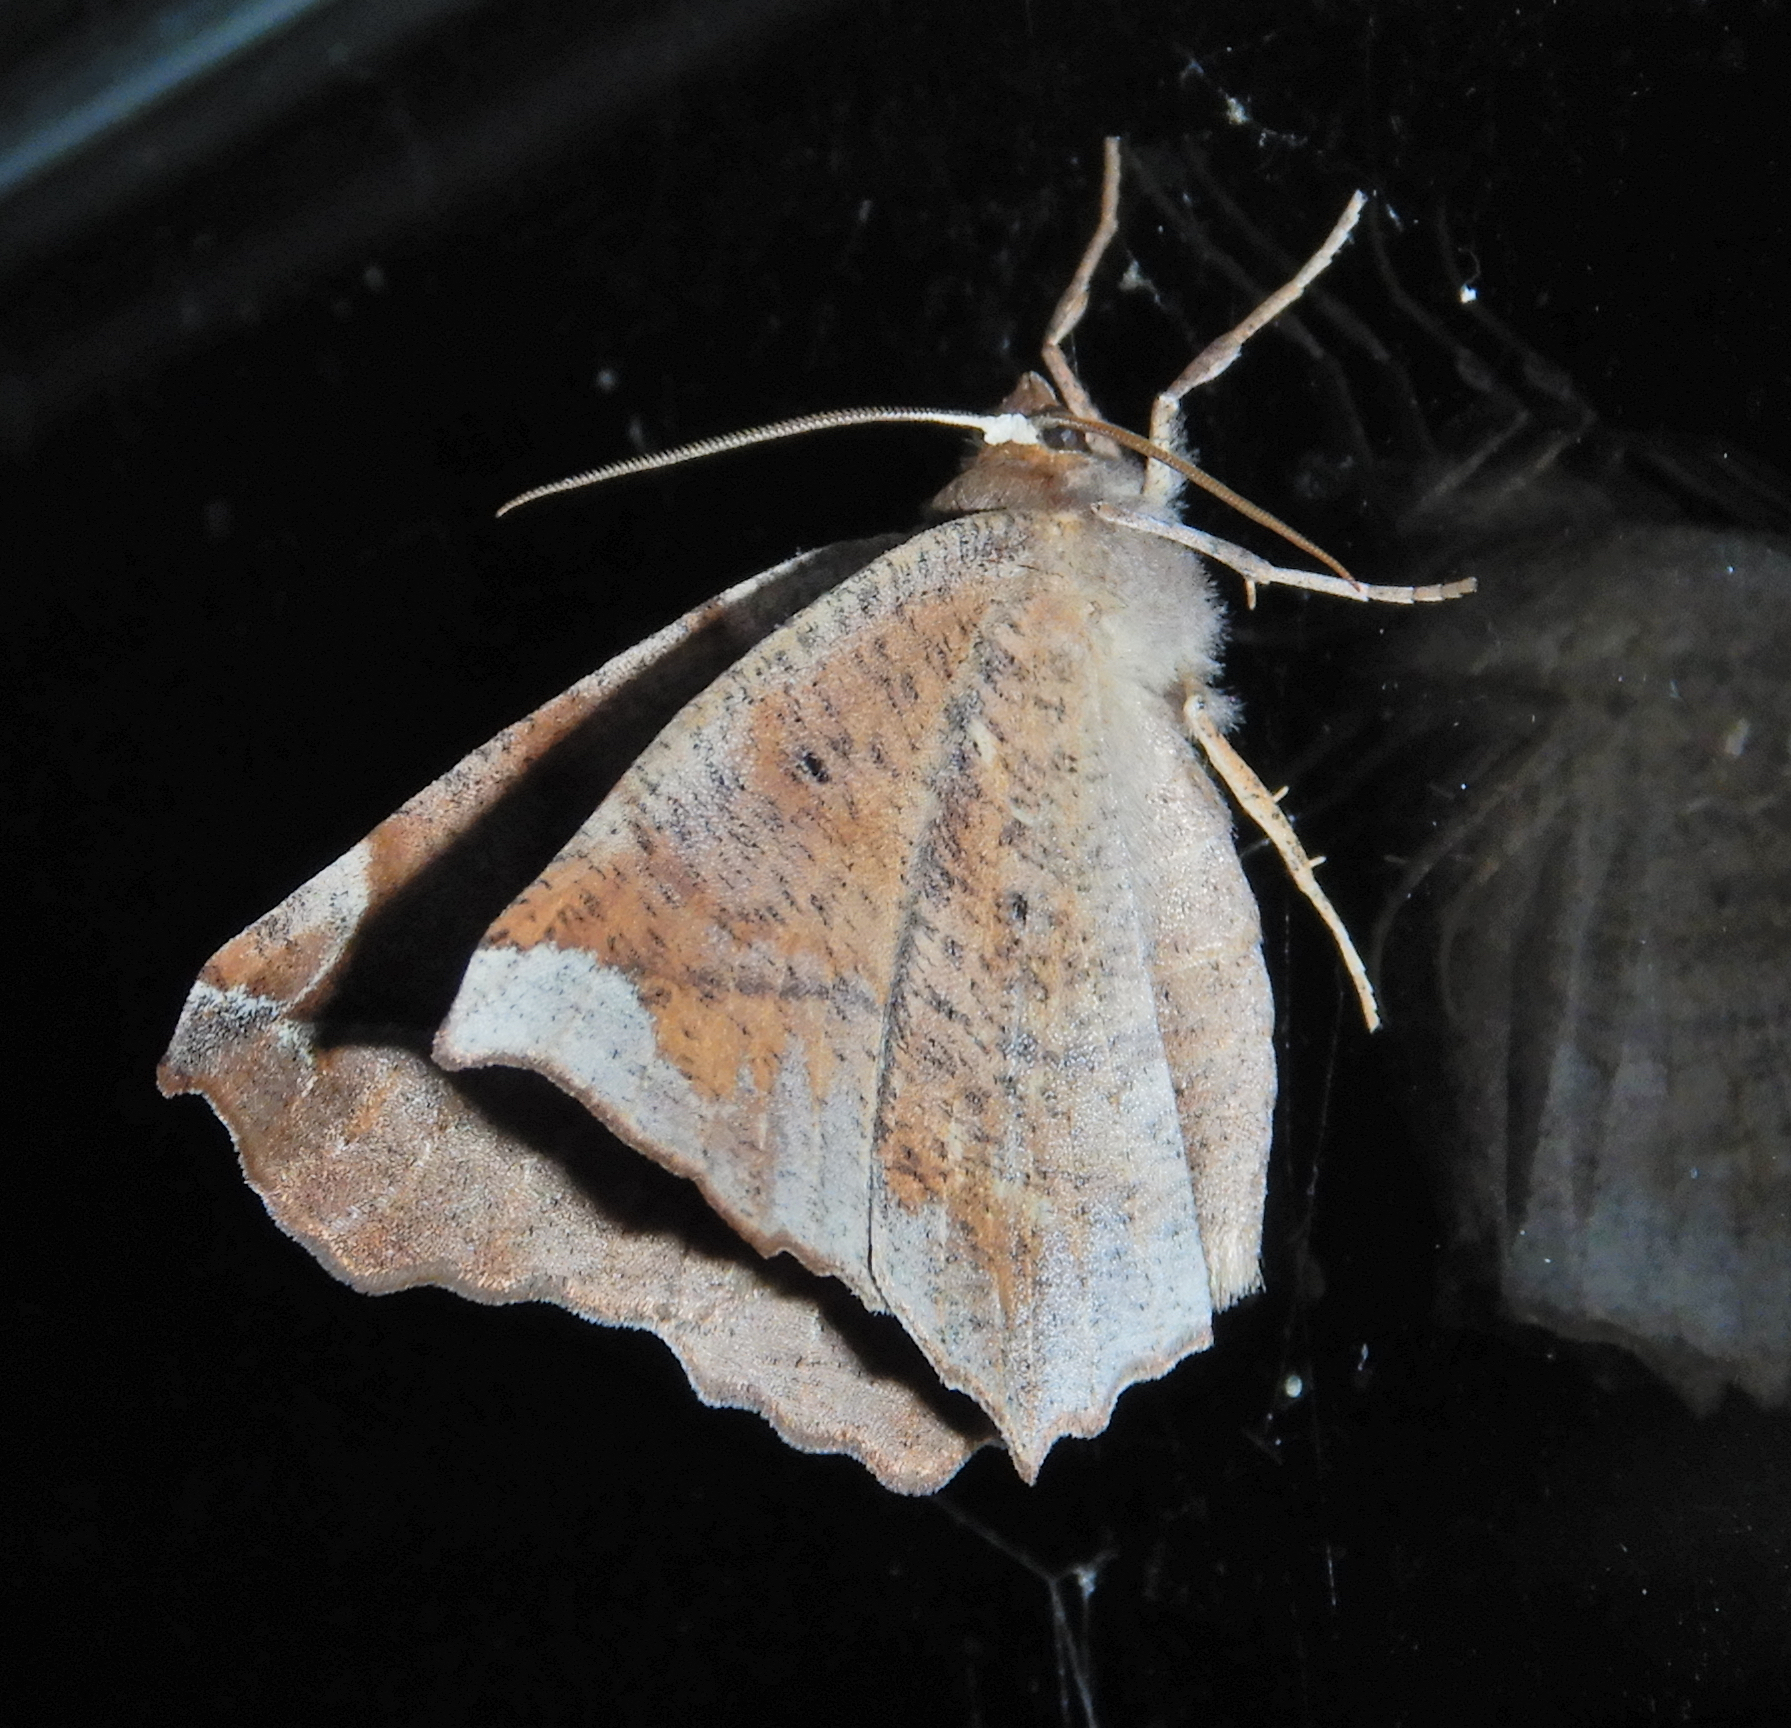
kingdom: Animalia
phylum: Arthropoda
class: Insecta
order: Lepidoptera
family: Geometridae
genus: Eutrapela
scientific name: Eutrapela clemataria
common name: Curved-toothed geometer
